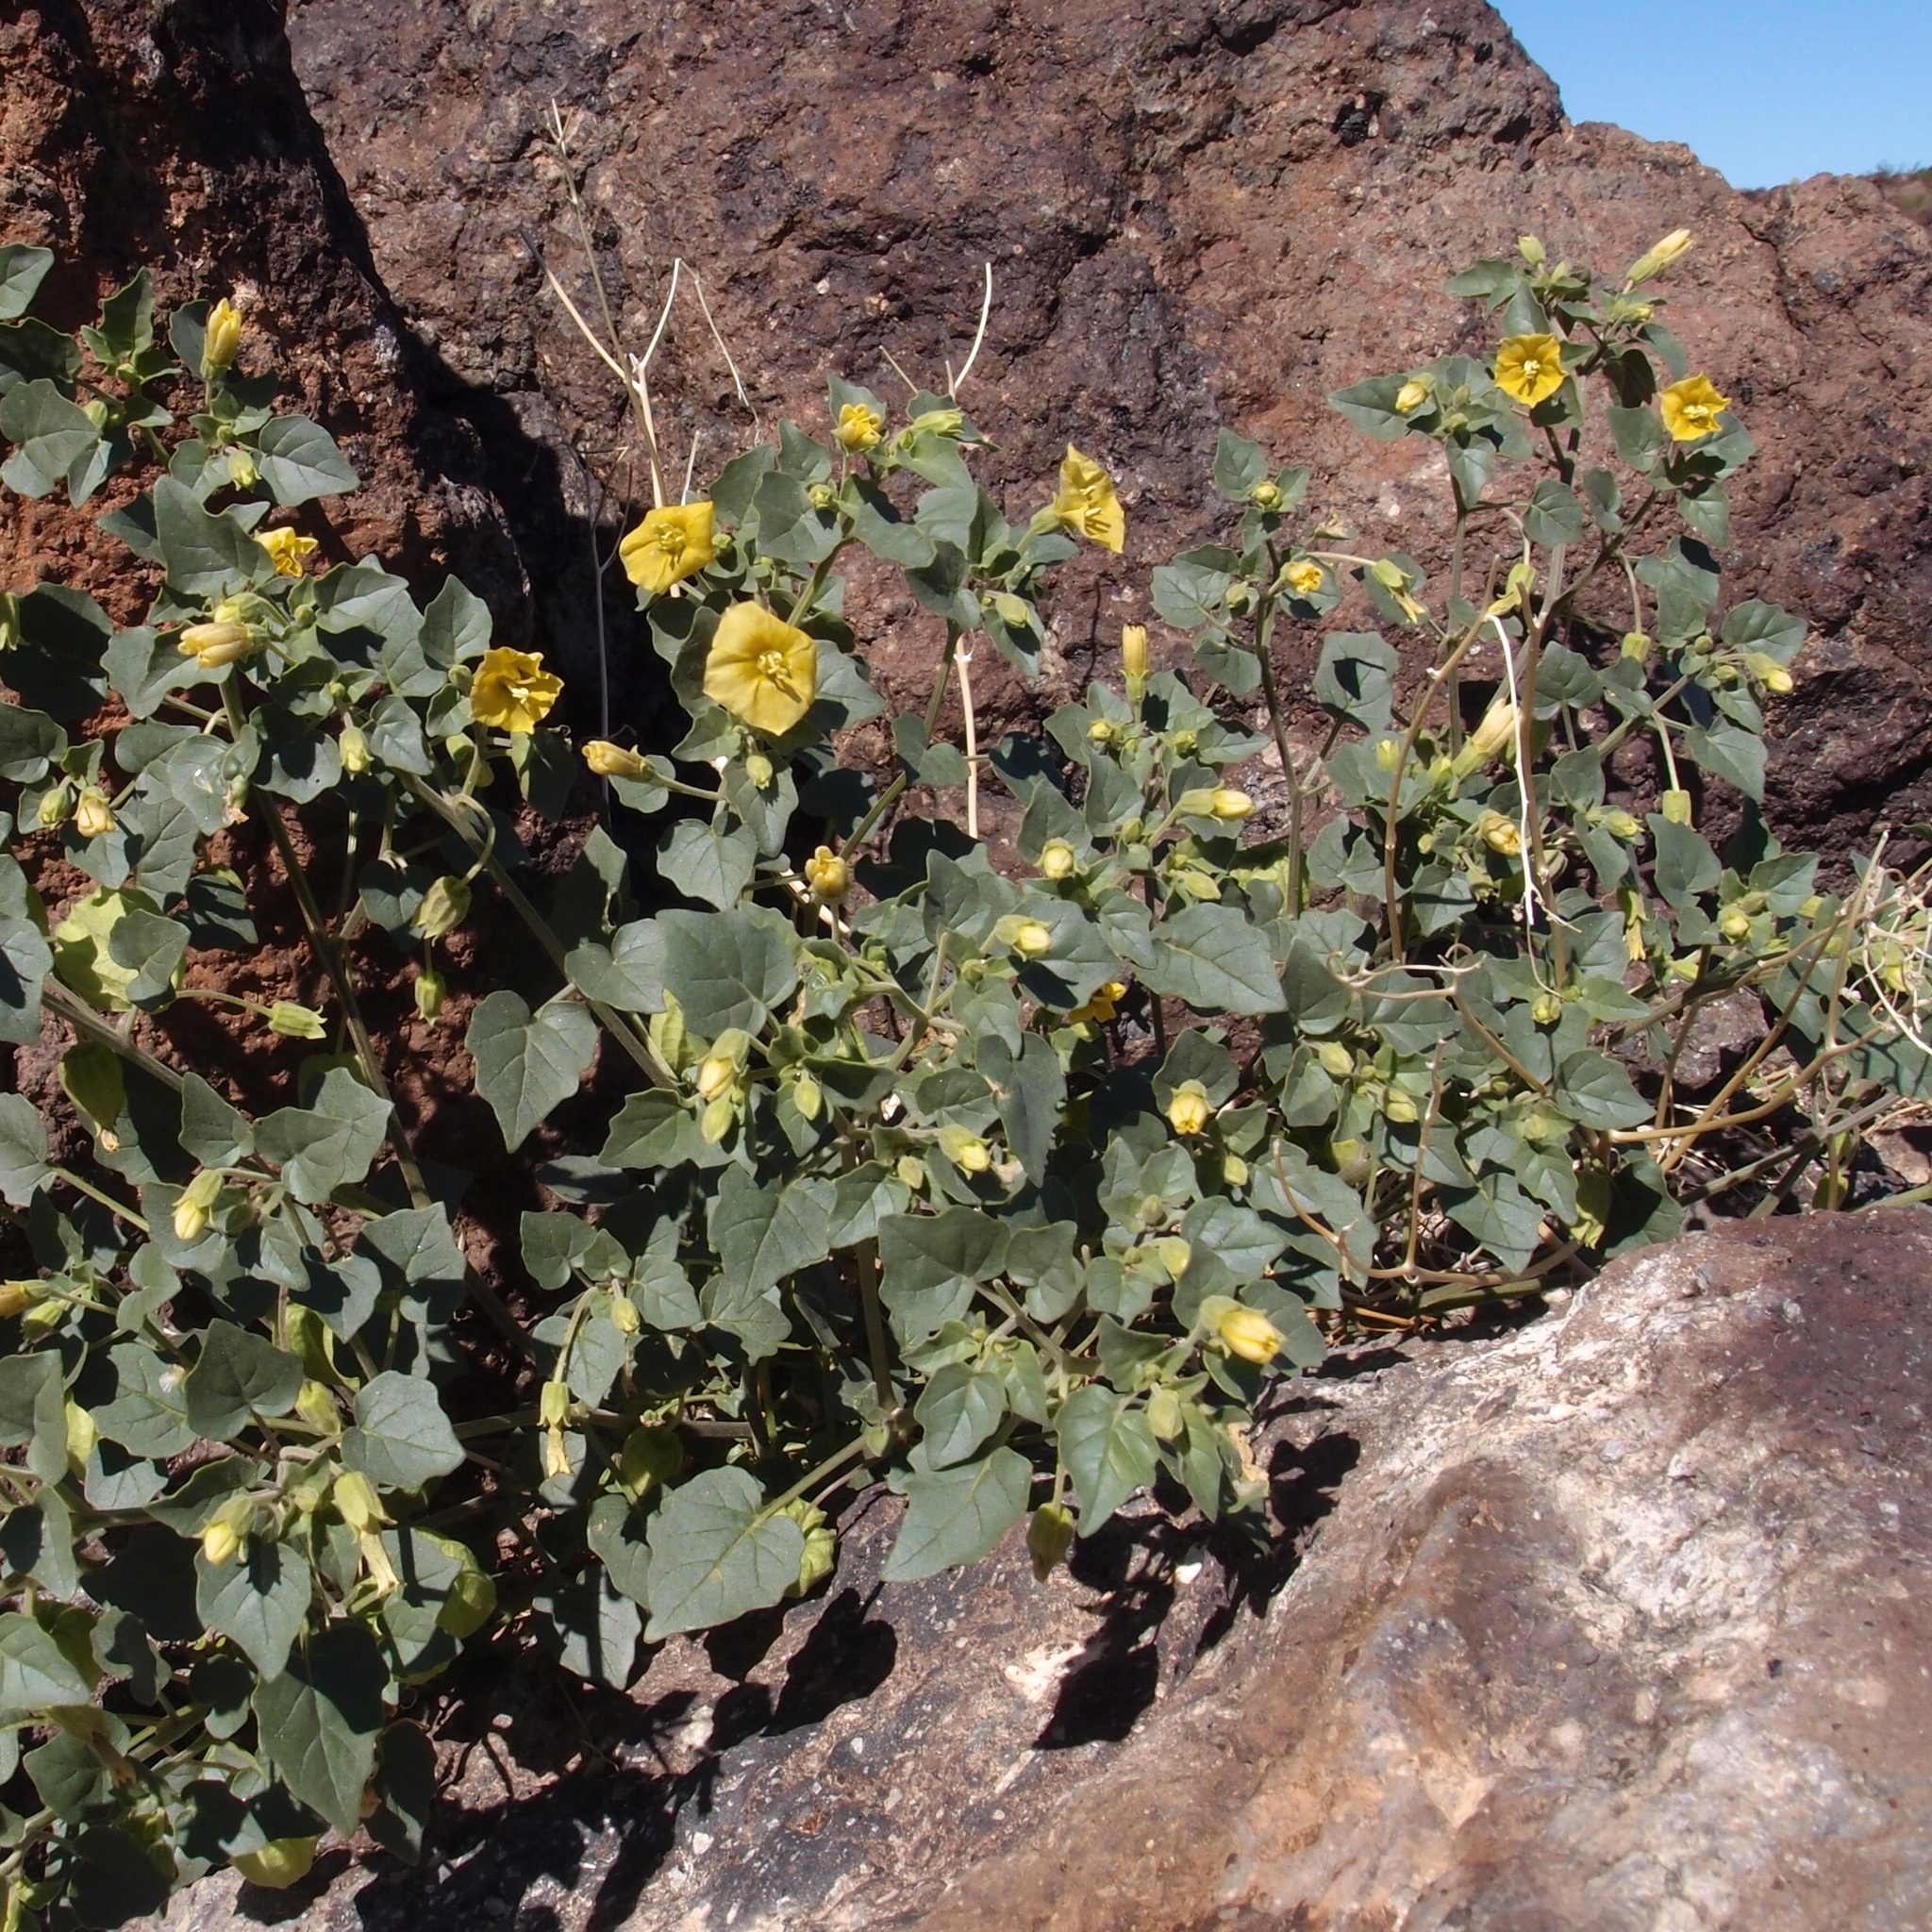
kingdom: Plantae
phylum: Tracheophyta
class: Magnoliopsida
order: Solanales
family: Solanaceae
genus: Physalis
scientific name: Physalis crassifolia
